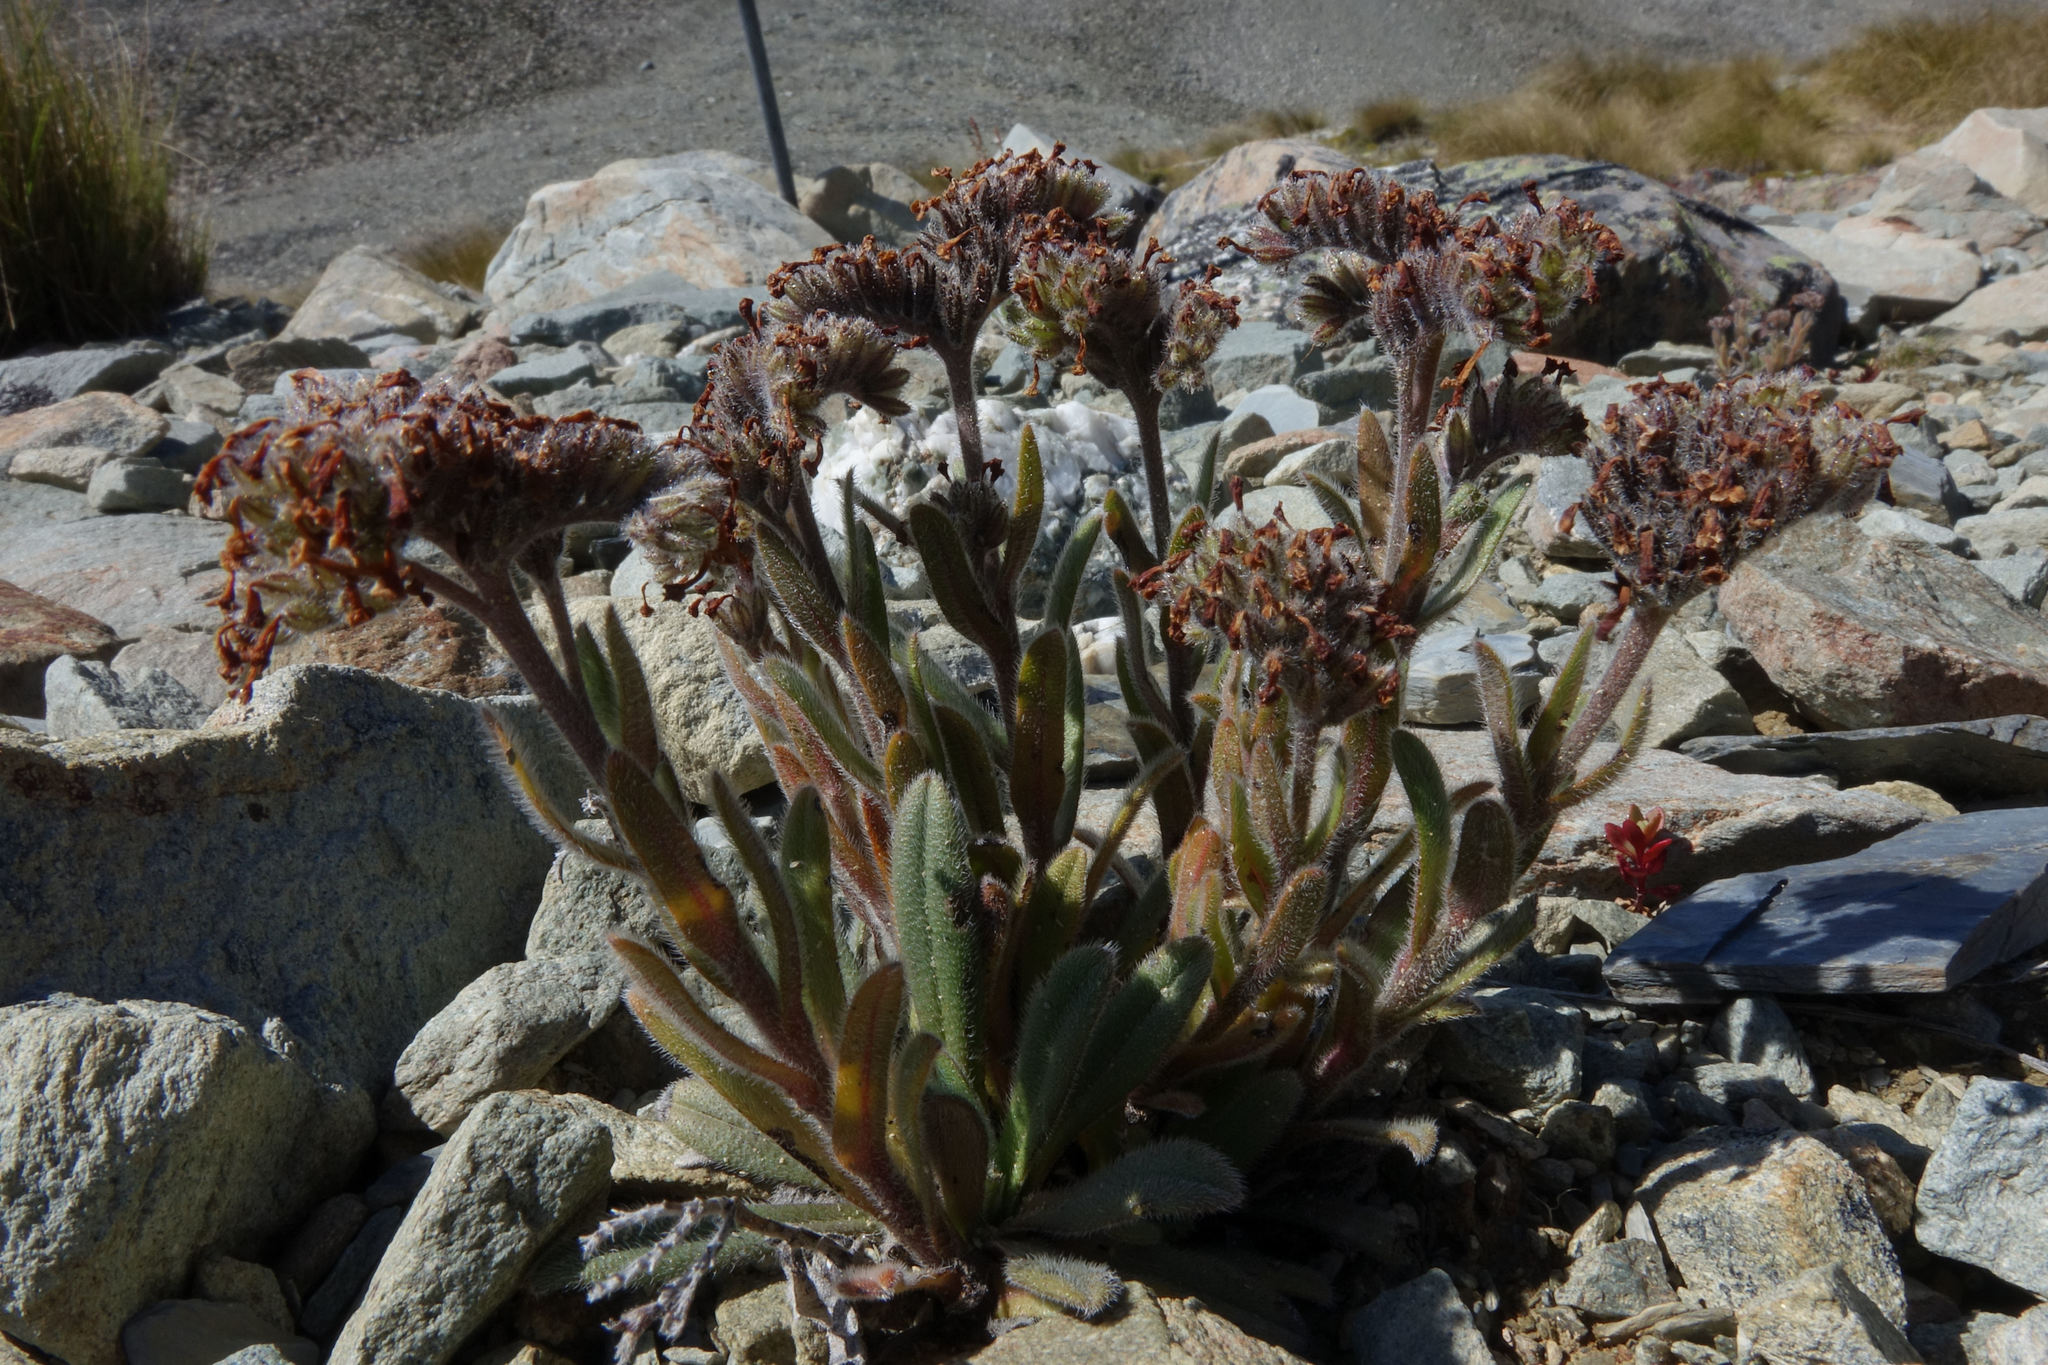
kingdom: Plantae
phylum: Tracheophyta
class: Magnoliopsida
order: Boraginales
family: Boraginaceae
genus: Myosotis
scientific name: Myosotis traversii
